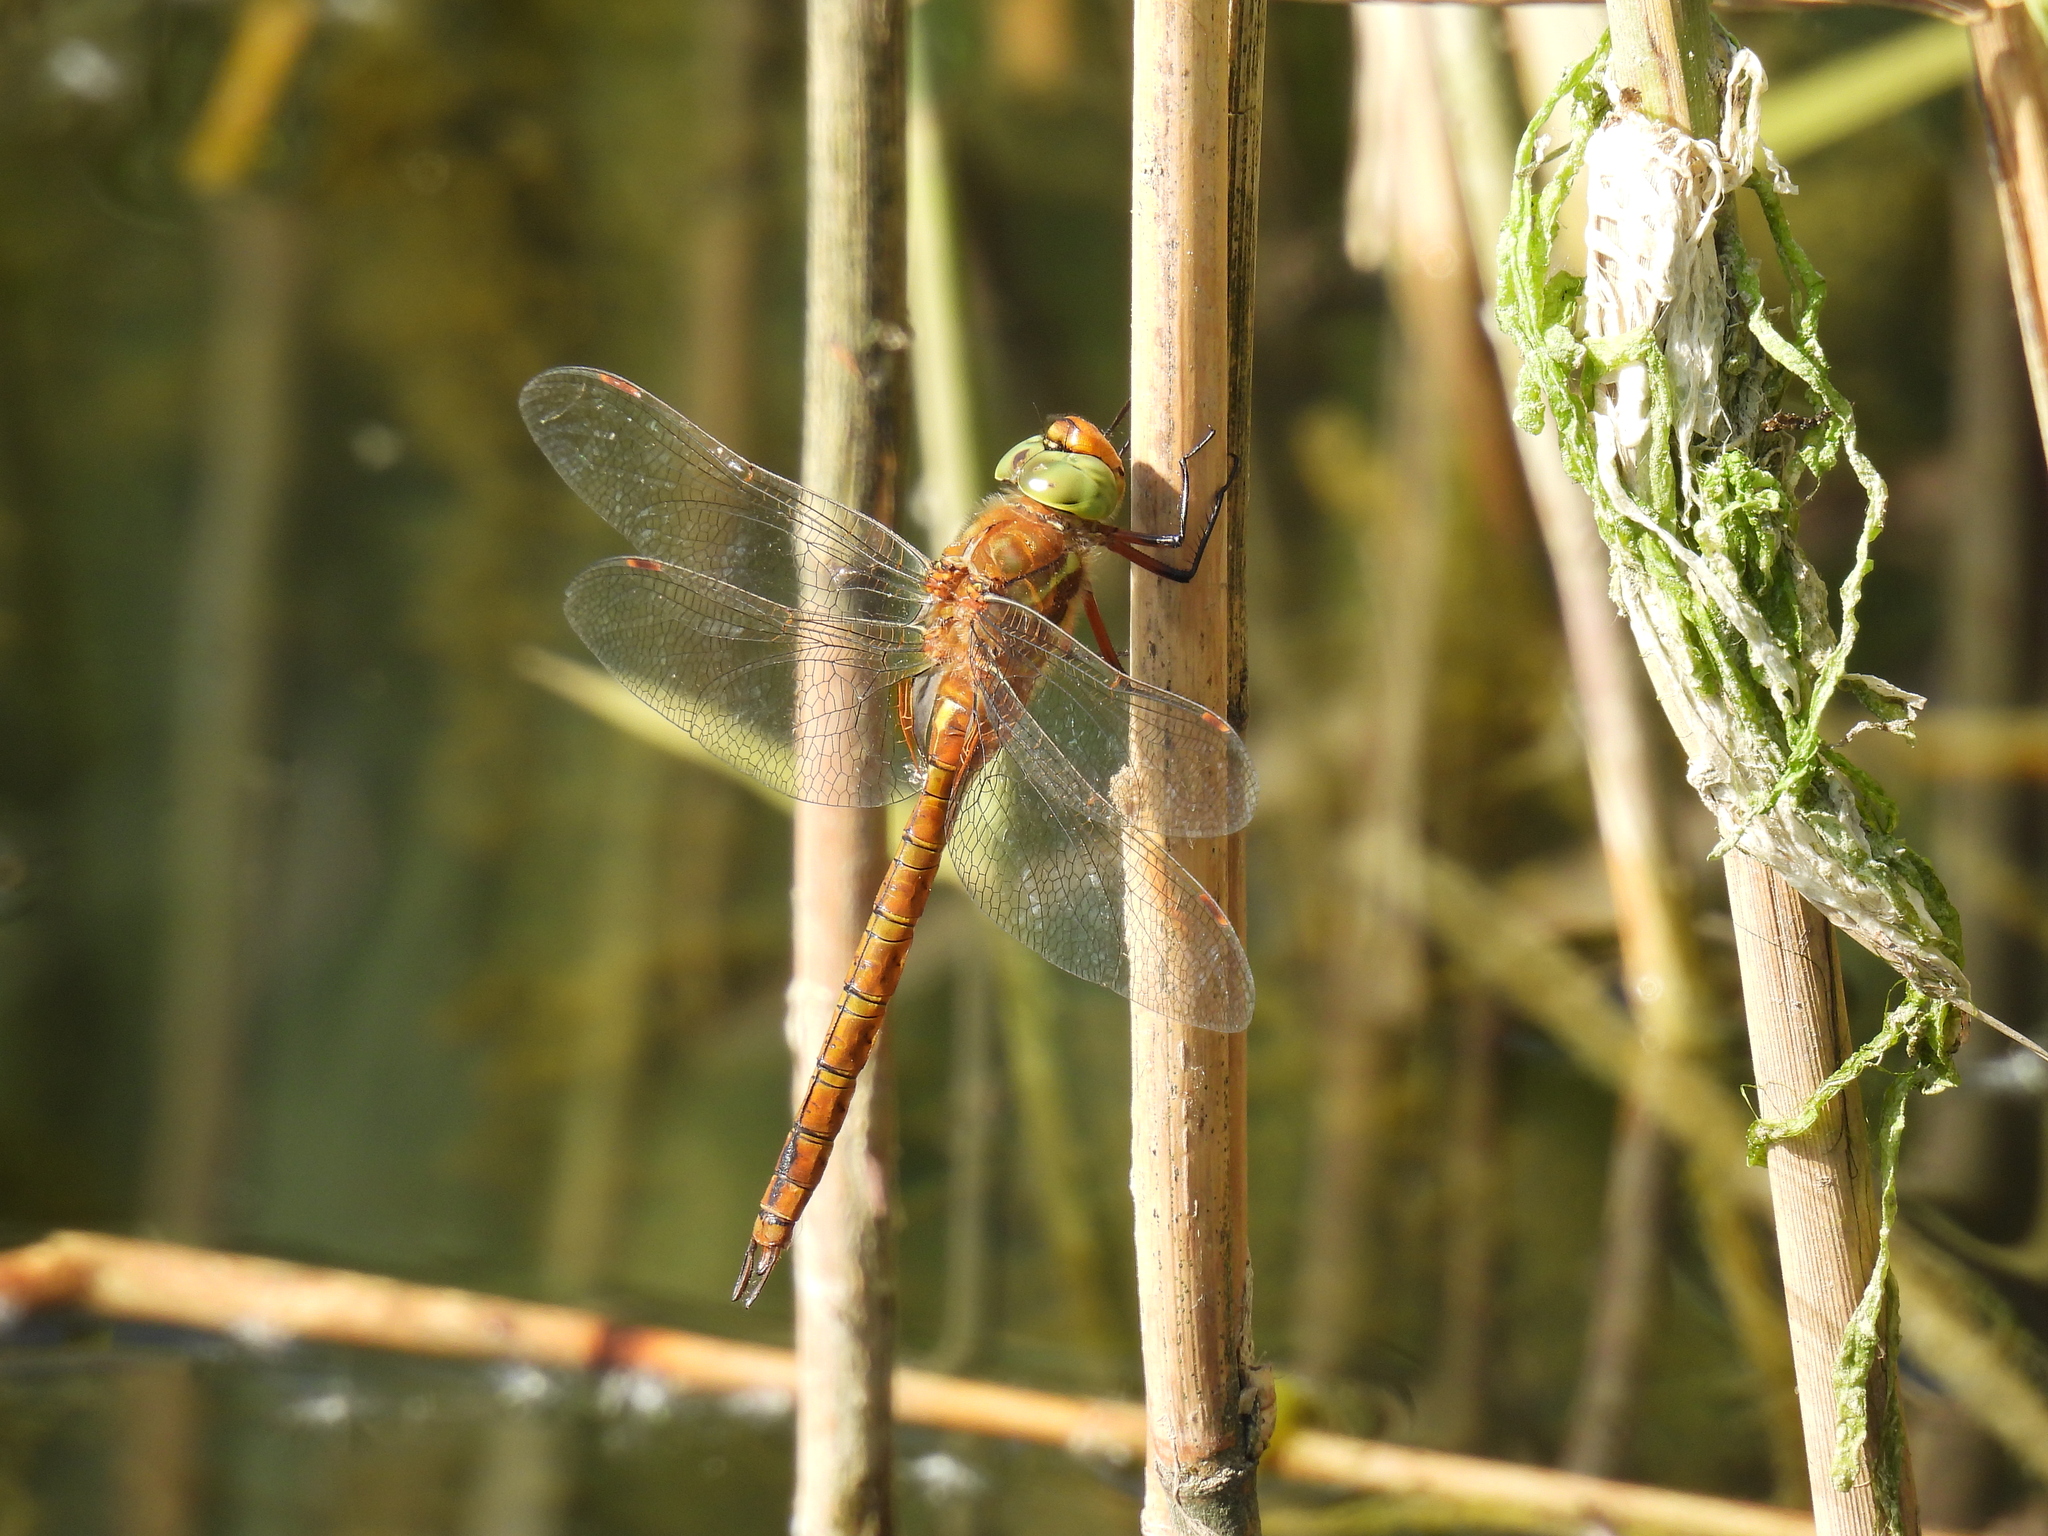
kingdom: Animalia
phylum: Arthropoda
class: Insecta
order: Odonata
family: Aeshnidae
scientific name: Aeshnidae
